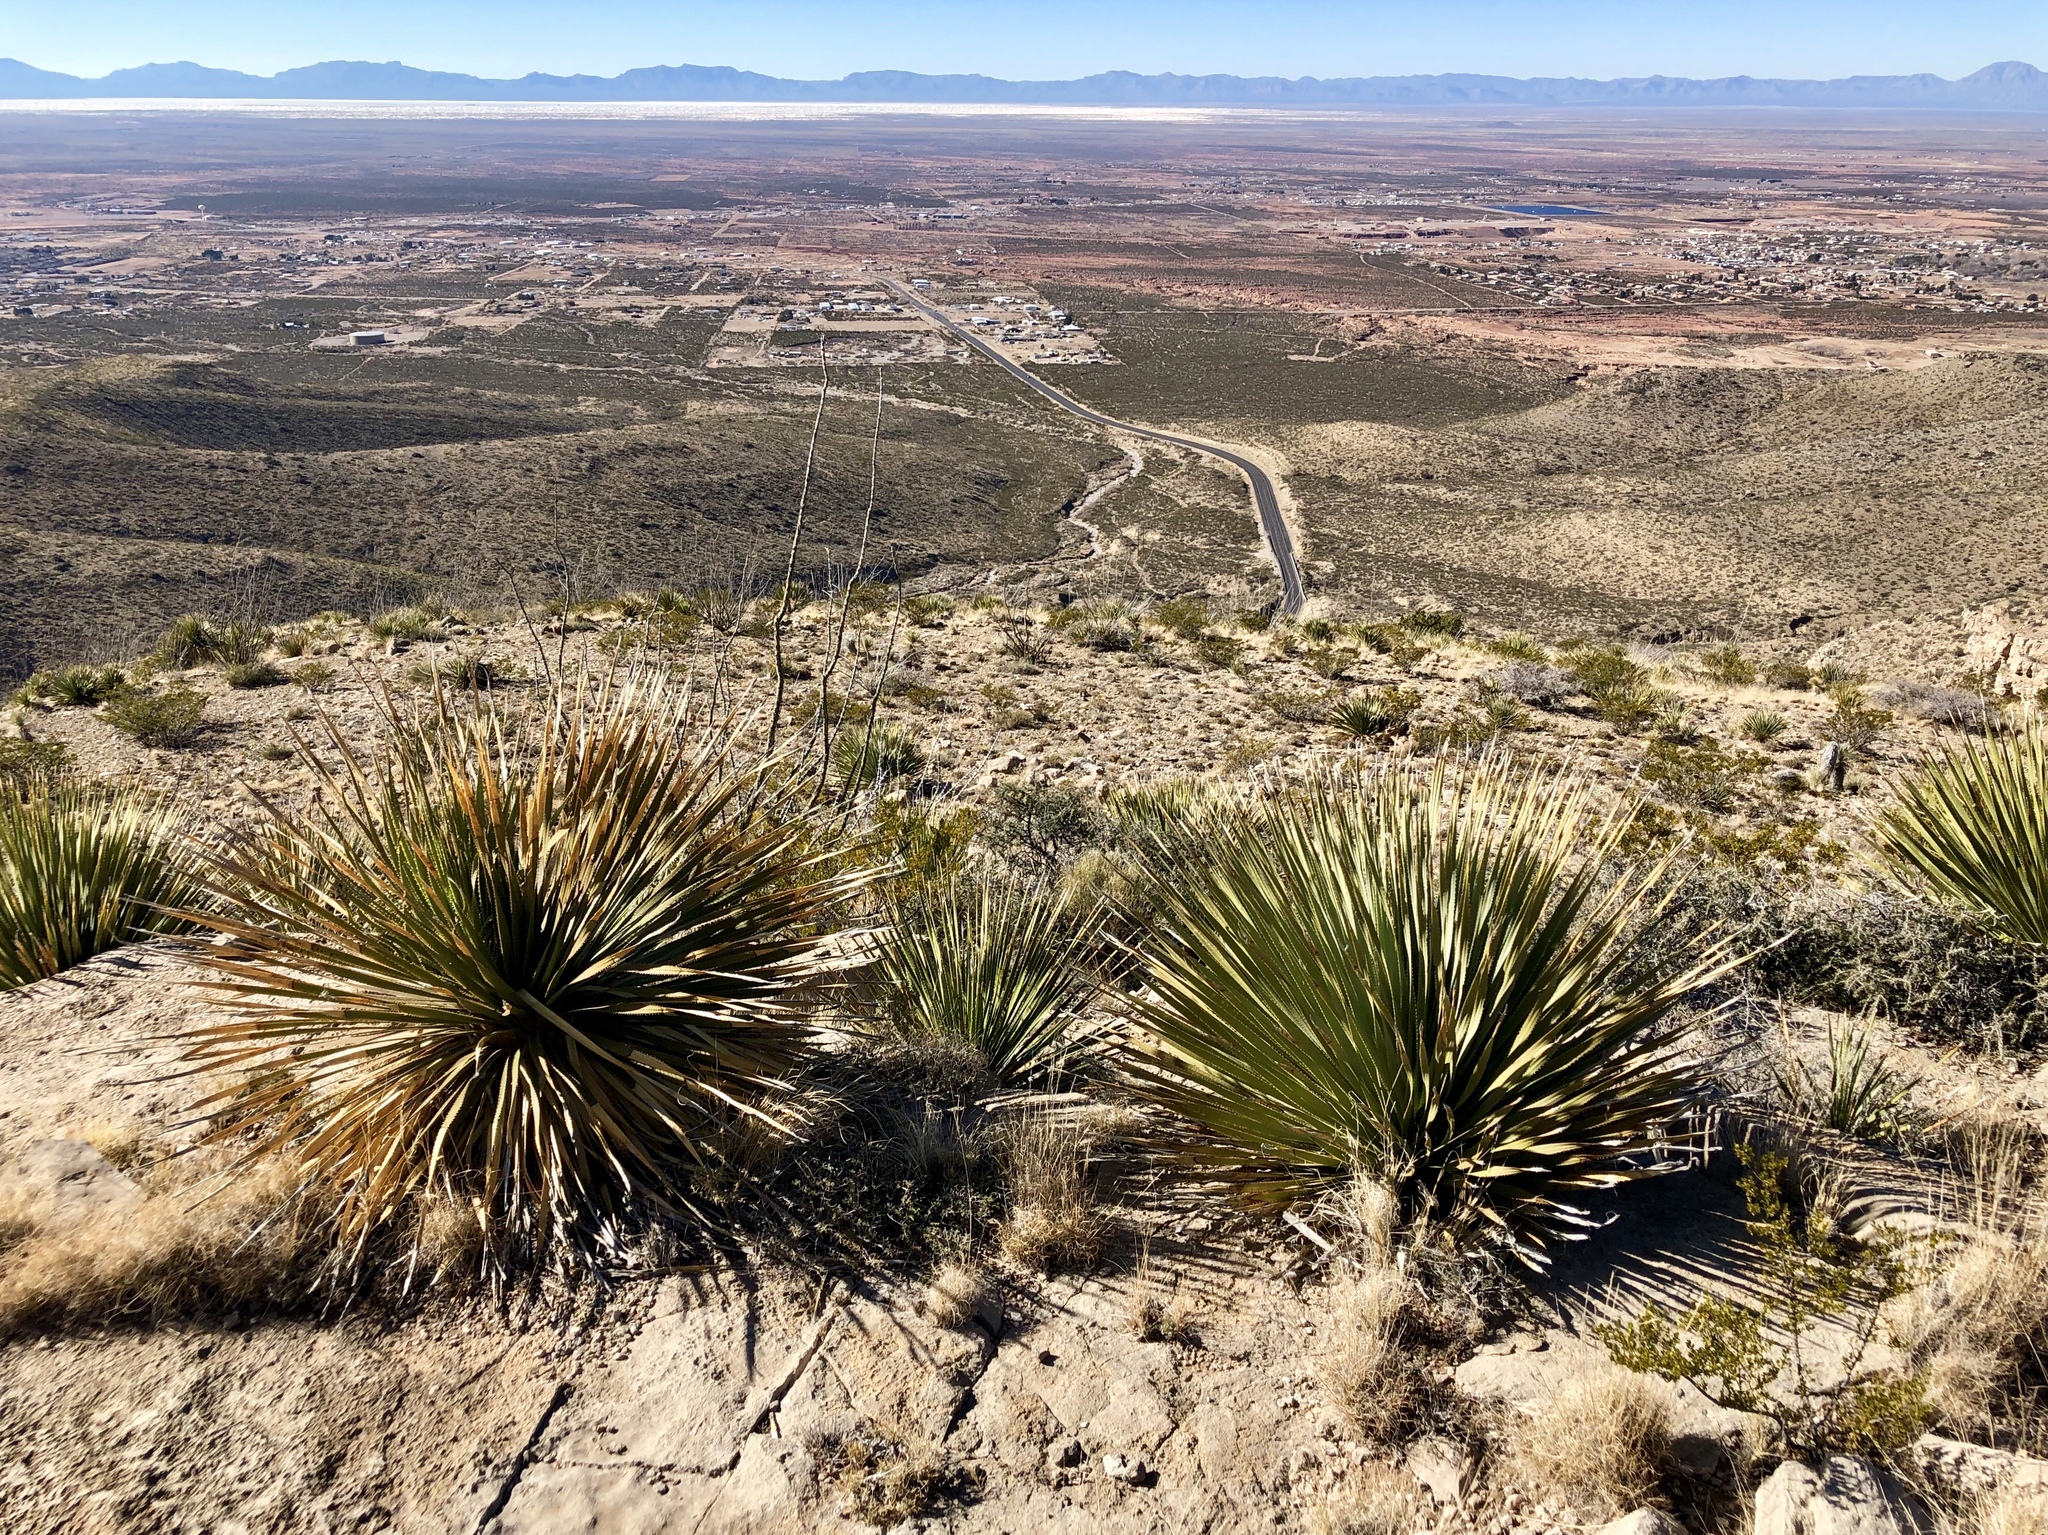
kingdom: Plantae
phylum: Tracheophyta
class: Liliopsida
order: Asparagales
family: Asparagaceae
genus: Dasylirion
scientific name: Dasylirion wheeleri
